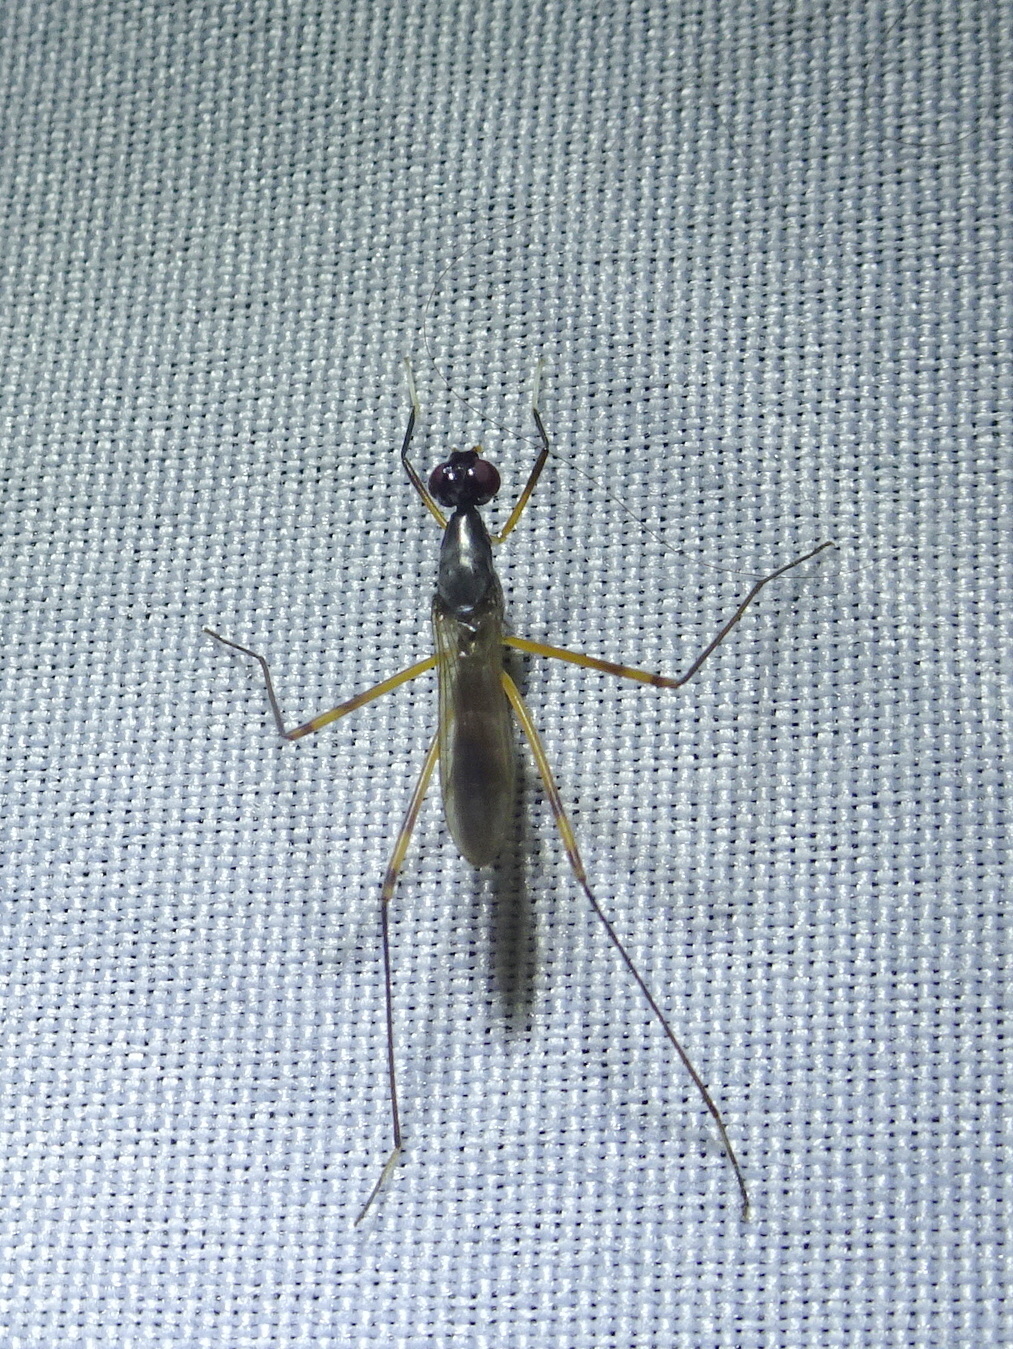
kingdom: Animalia
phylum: Arthropoda
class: Insecta
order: Diptera
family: Micropezidae
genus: Rainieria
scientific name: Rainieria antennaepes
